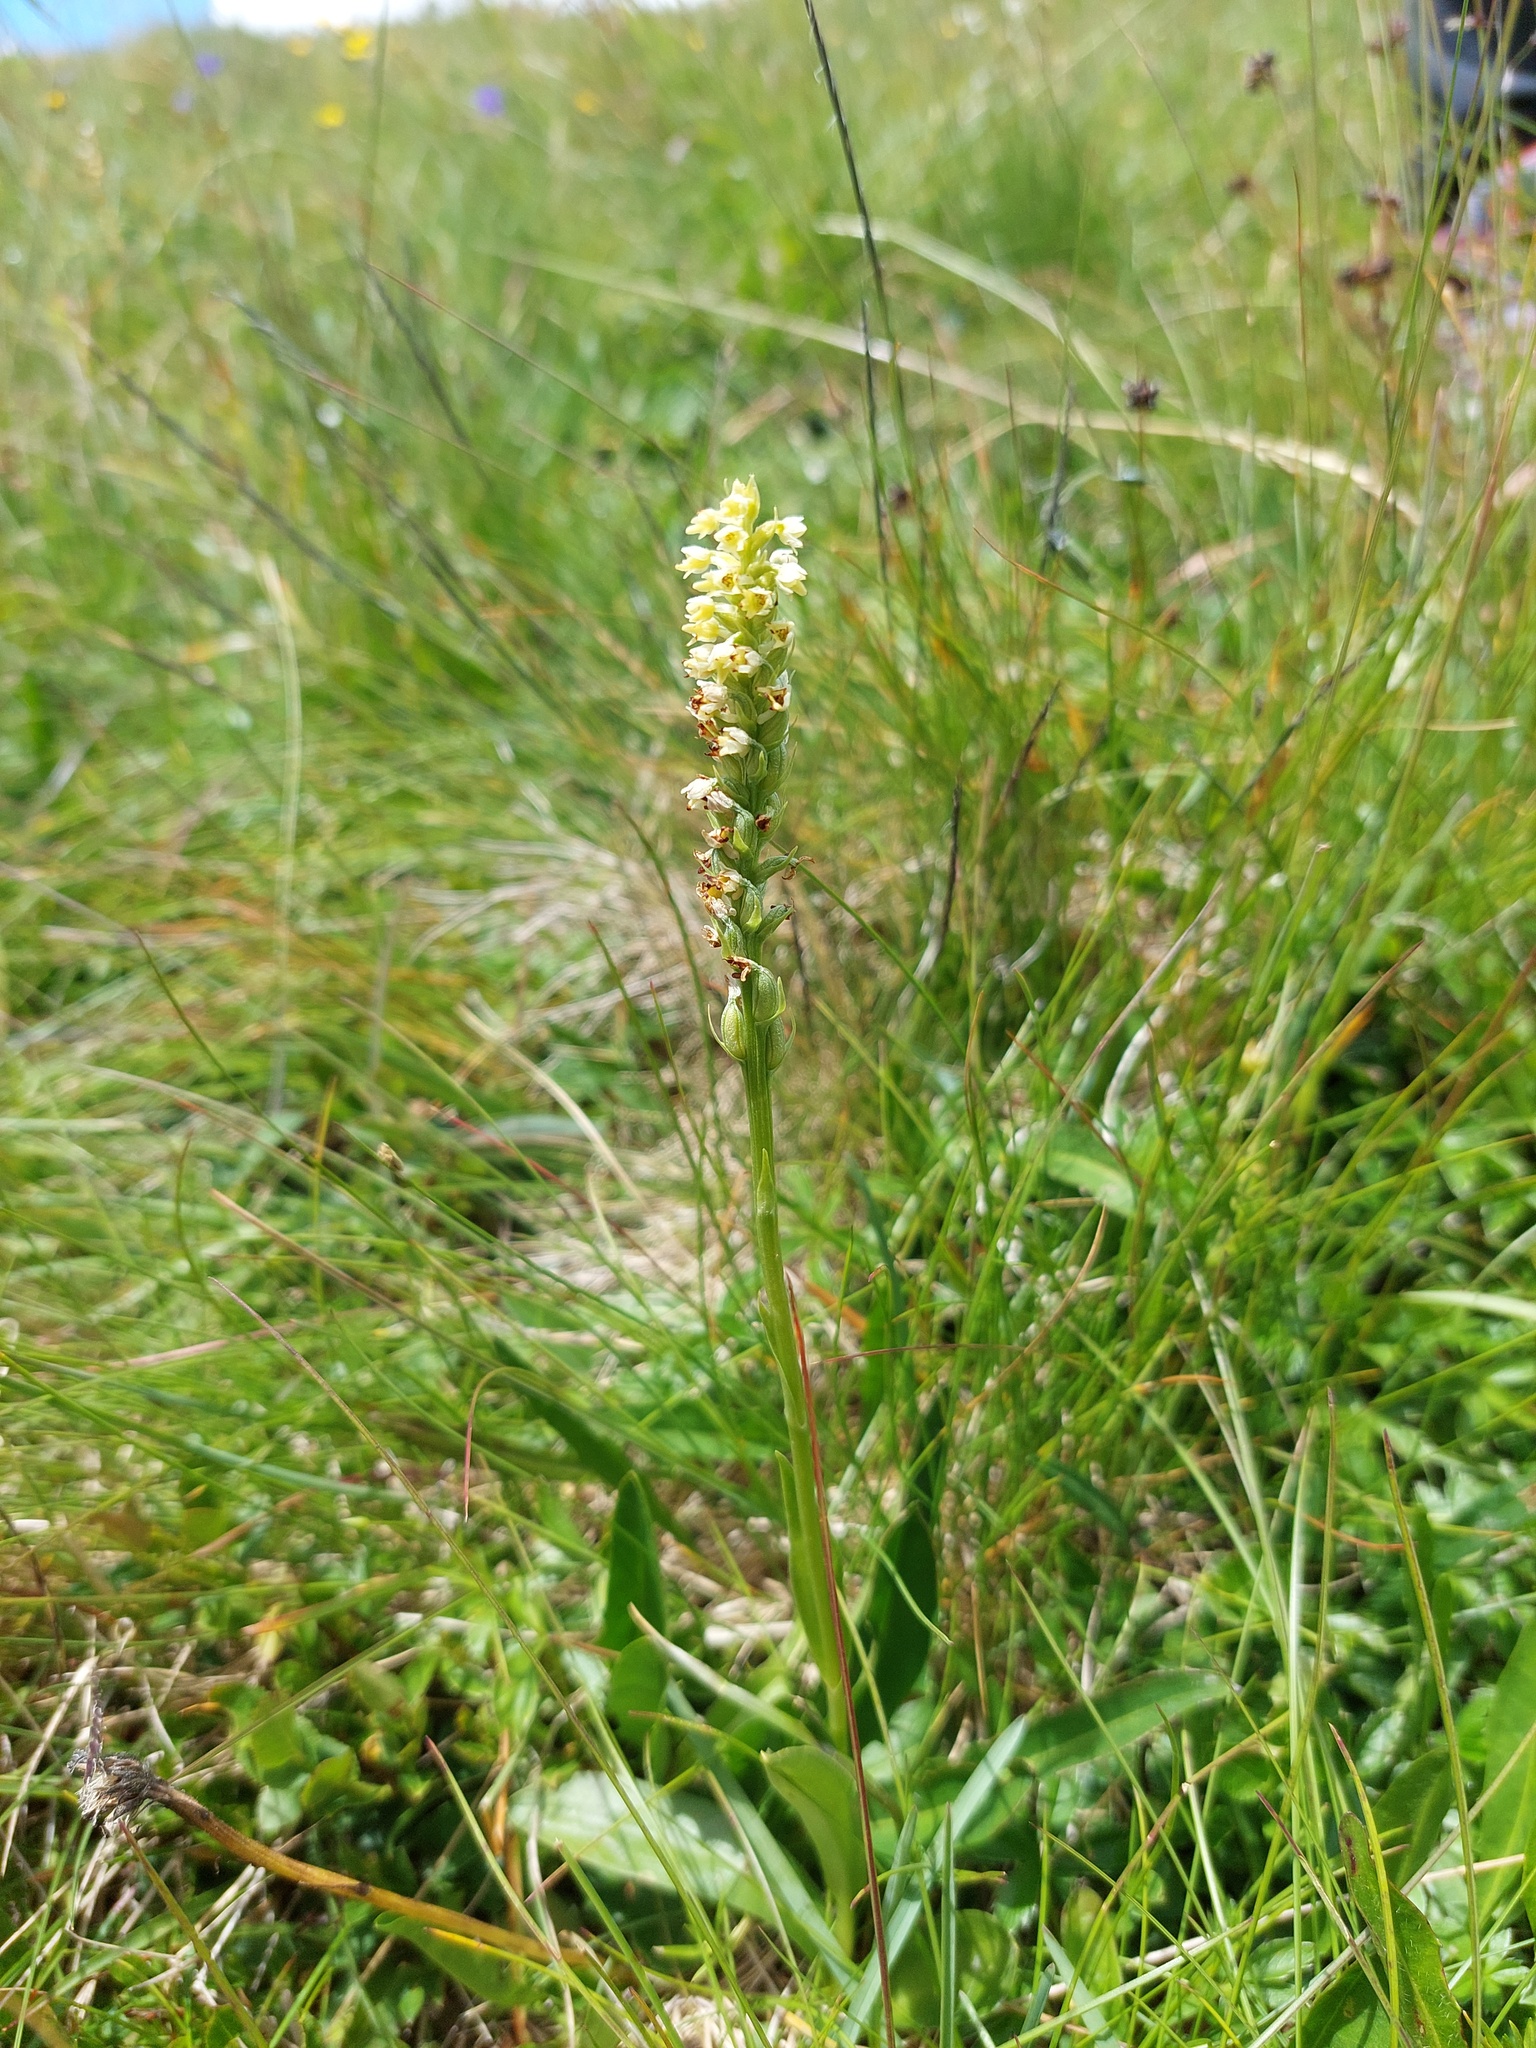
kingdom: Plantae
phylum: Tracheophyta
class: Liliopsida
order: Asparagales
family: Orchidaceae
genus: Pseudorchis
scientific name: Pseudorchis albida
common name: Small-white orchid
